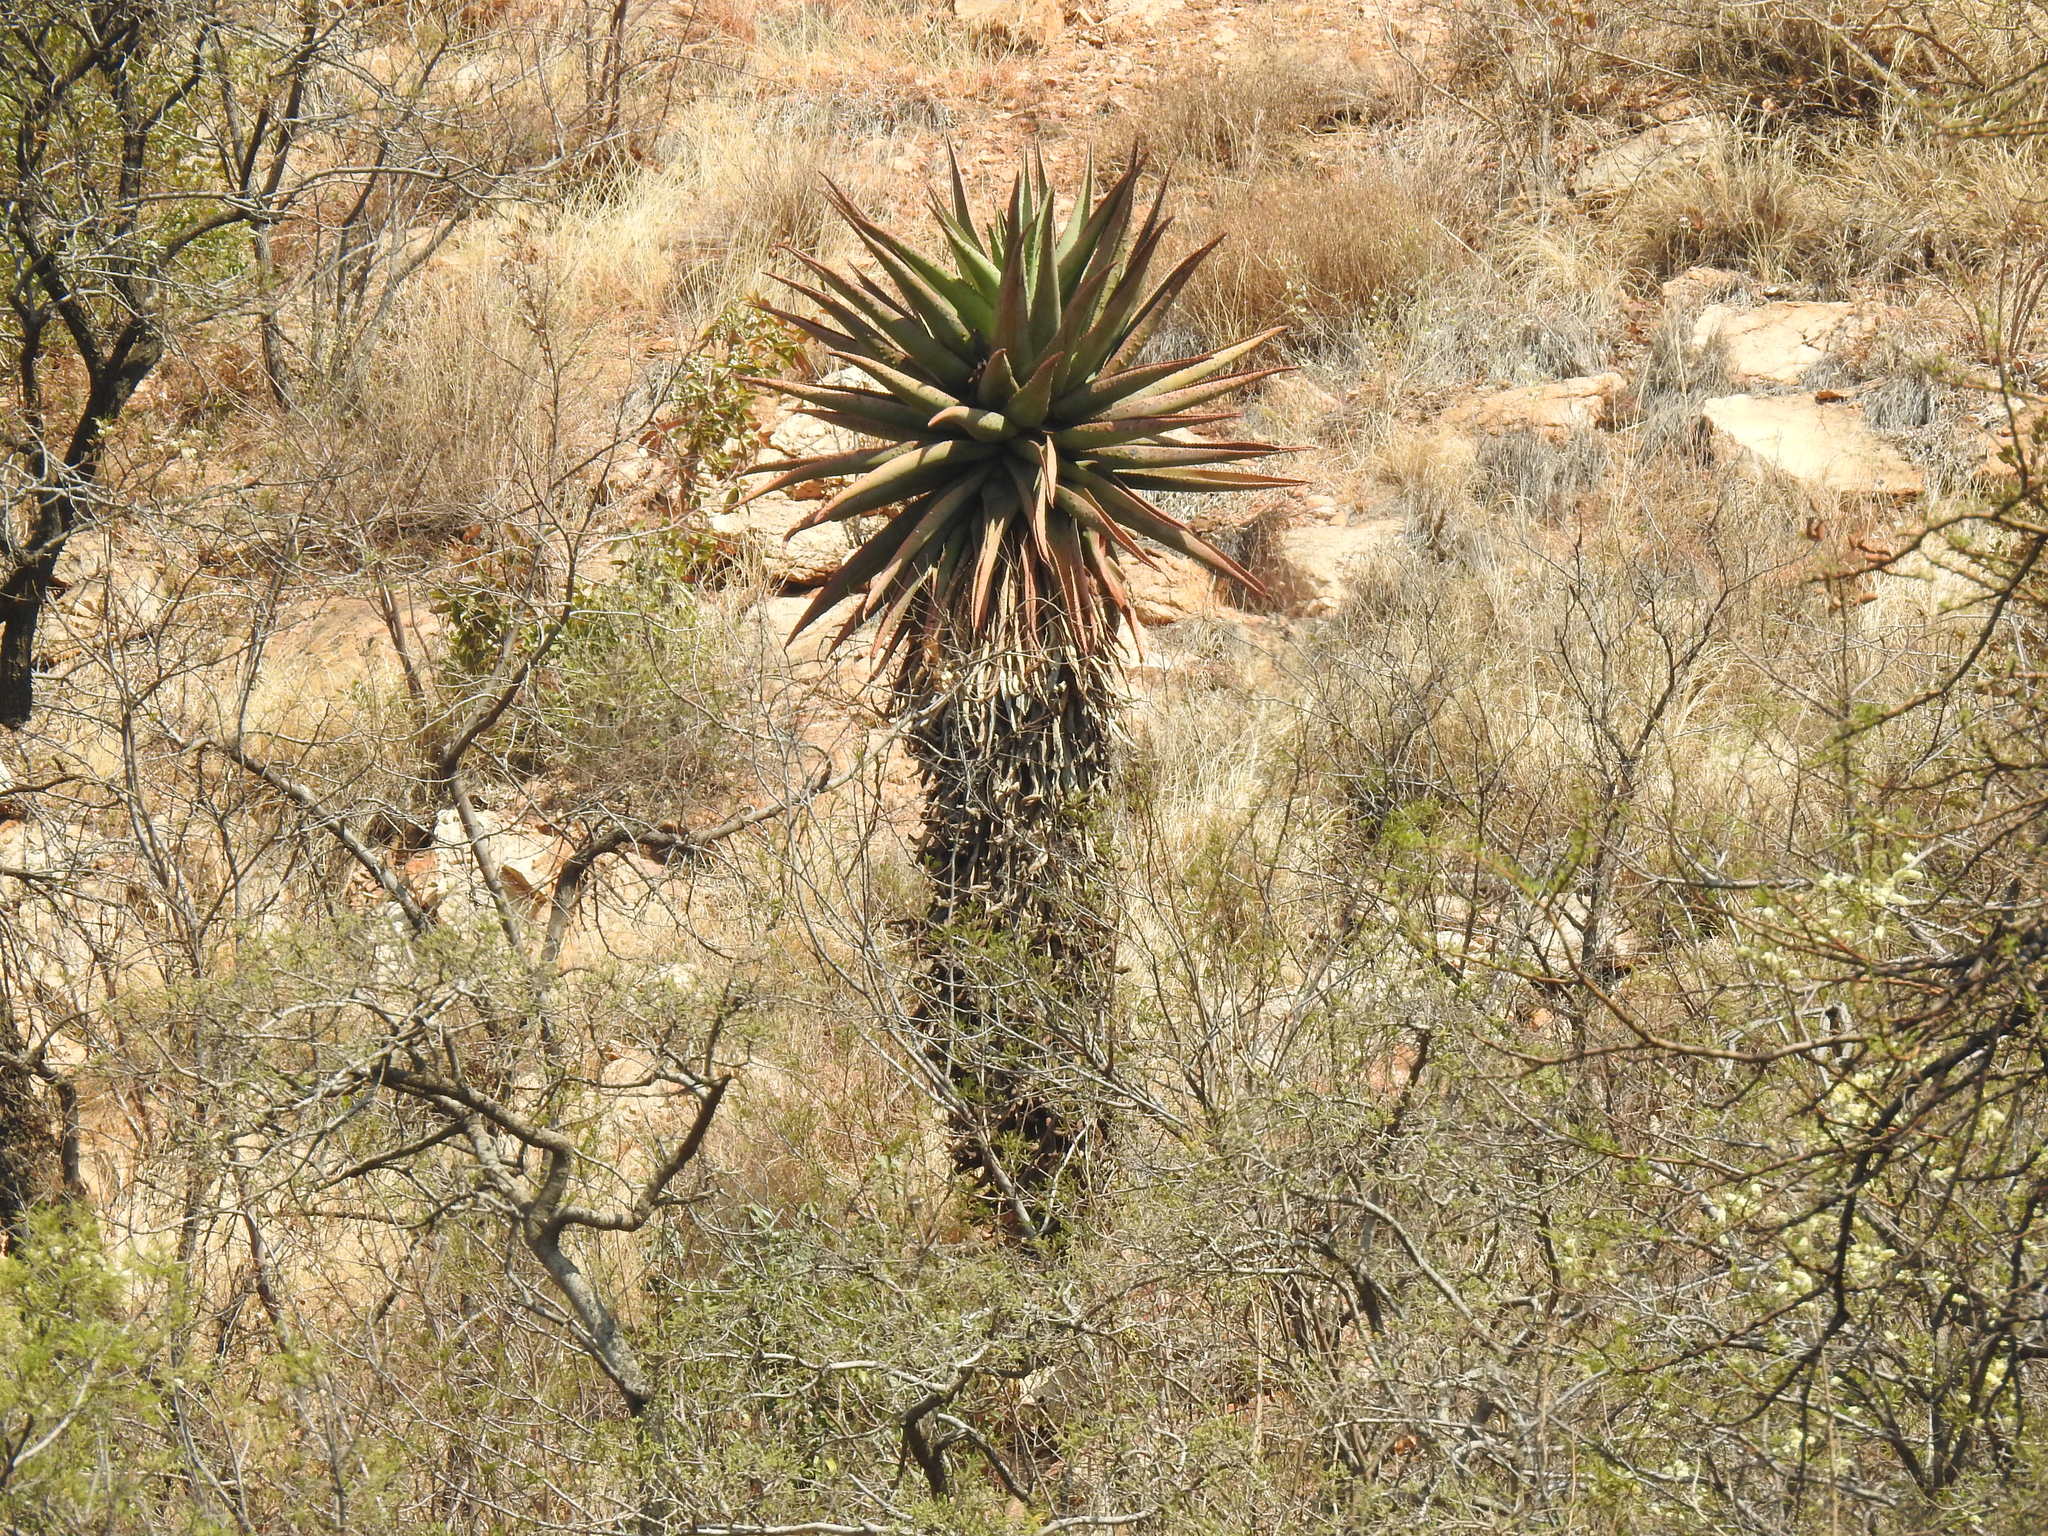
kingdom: Plantae
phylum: Tracheophyta
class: Liliopsida
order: Asparagales
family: Asphodelaceae
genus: Aloe
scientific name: Aloe marlothii
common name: Flat-flowered aloe
